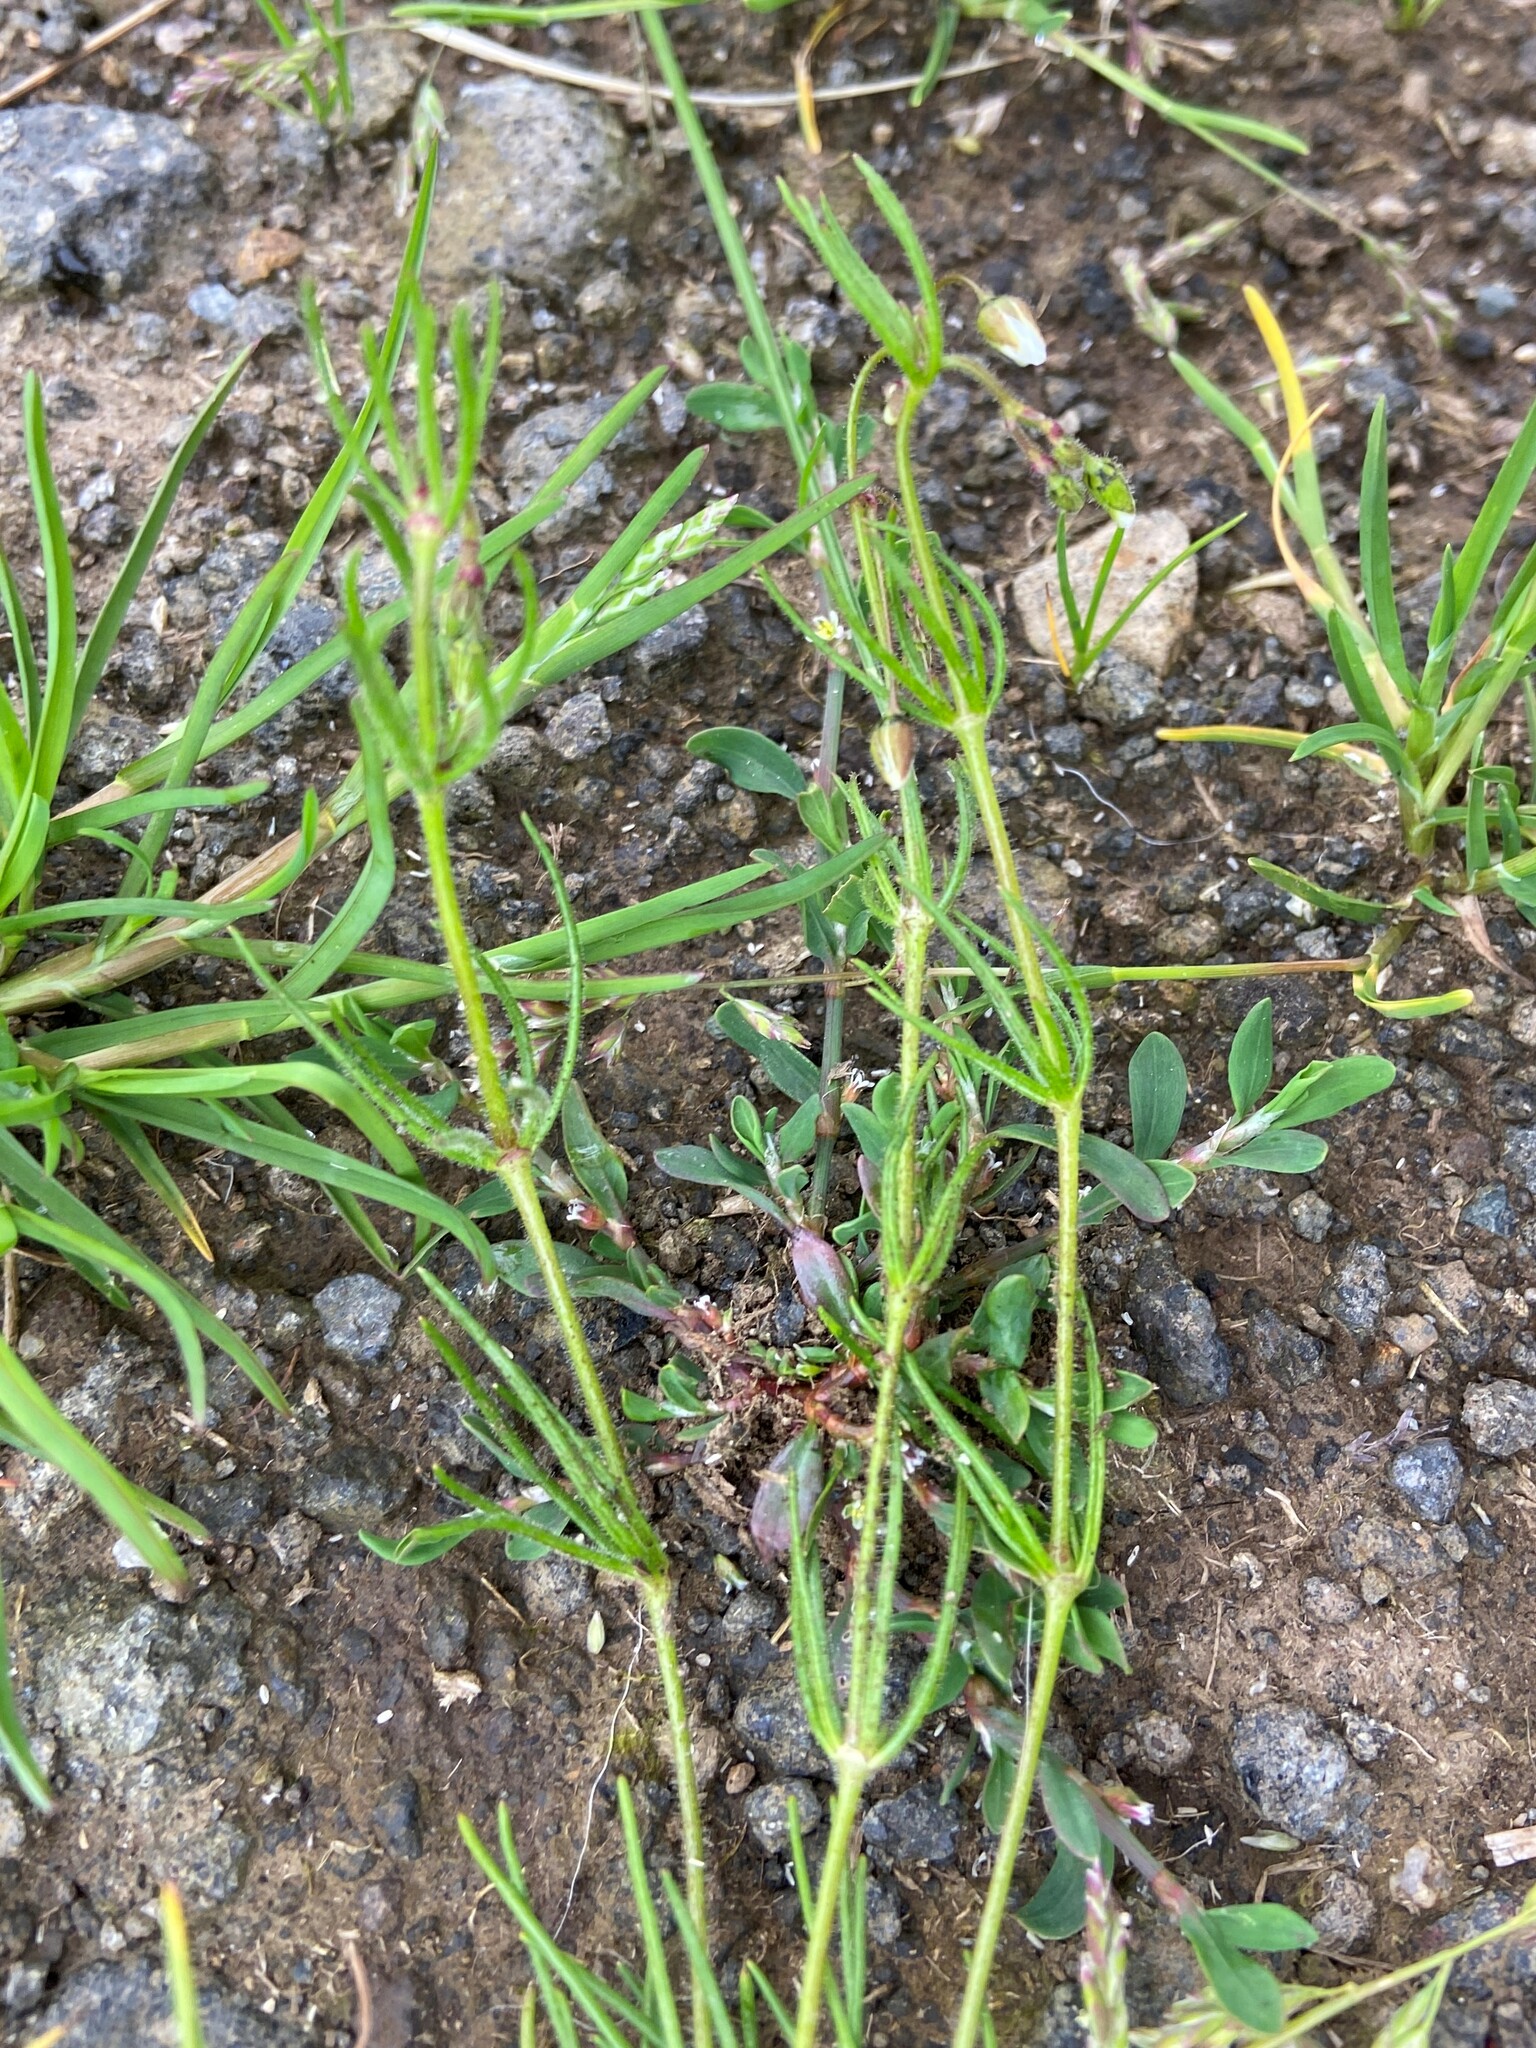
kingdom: Plantae
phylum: Tracheophyta
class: Magnoliopsida
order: Caryophyllales
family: Caryophyllaceae
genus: Spergula
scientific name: Spergula arvensis
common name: Corn spurrey
